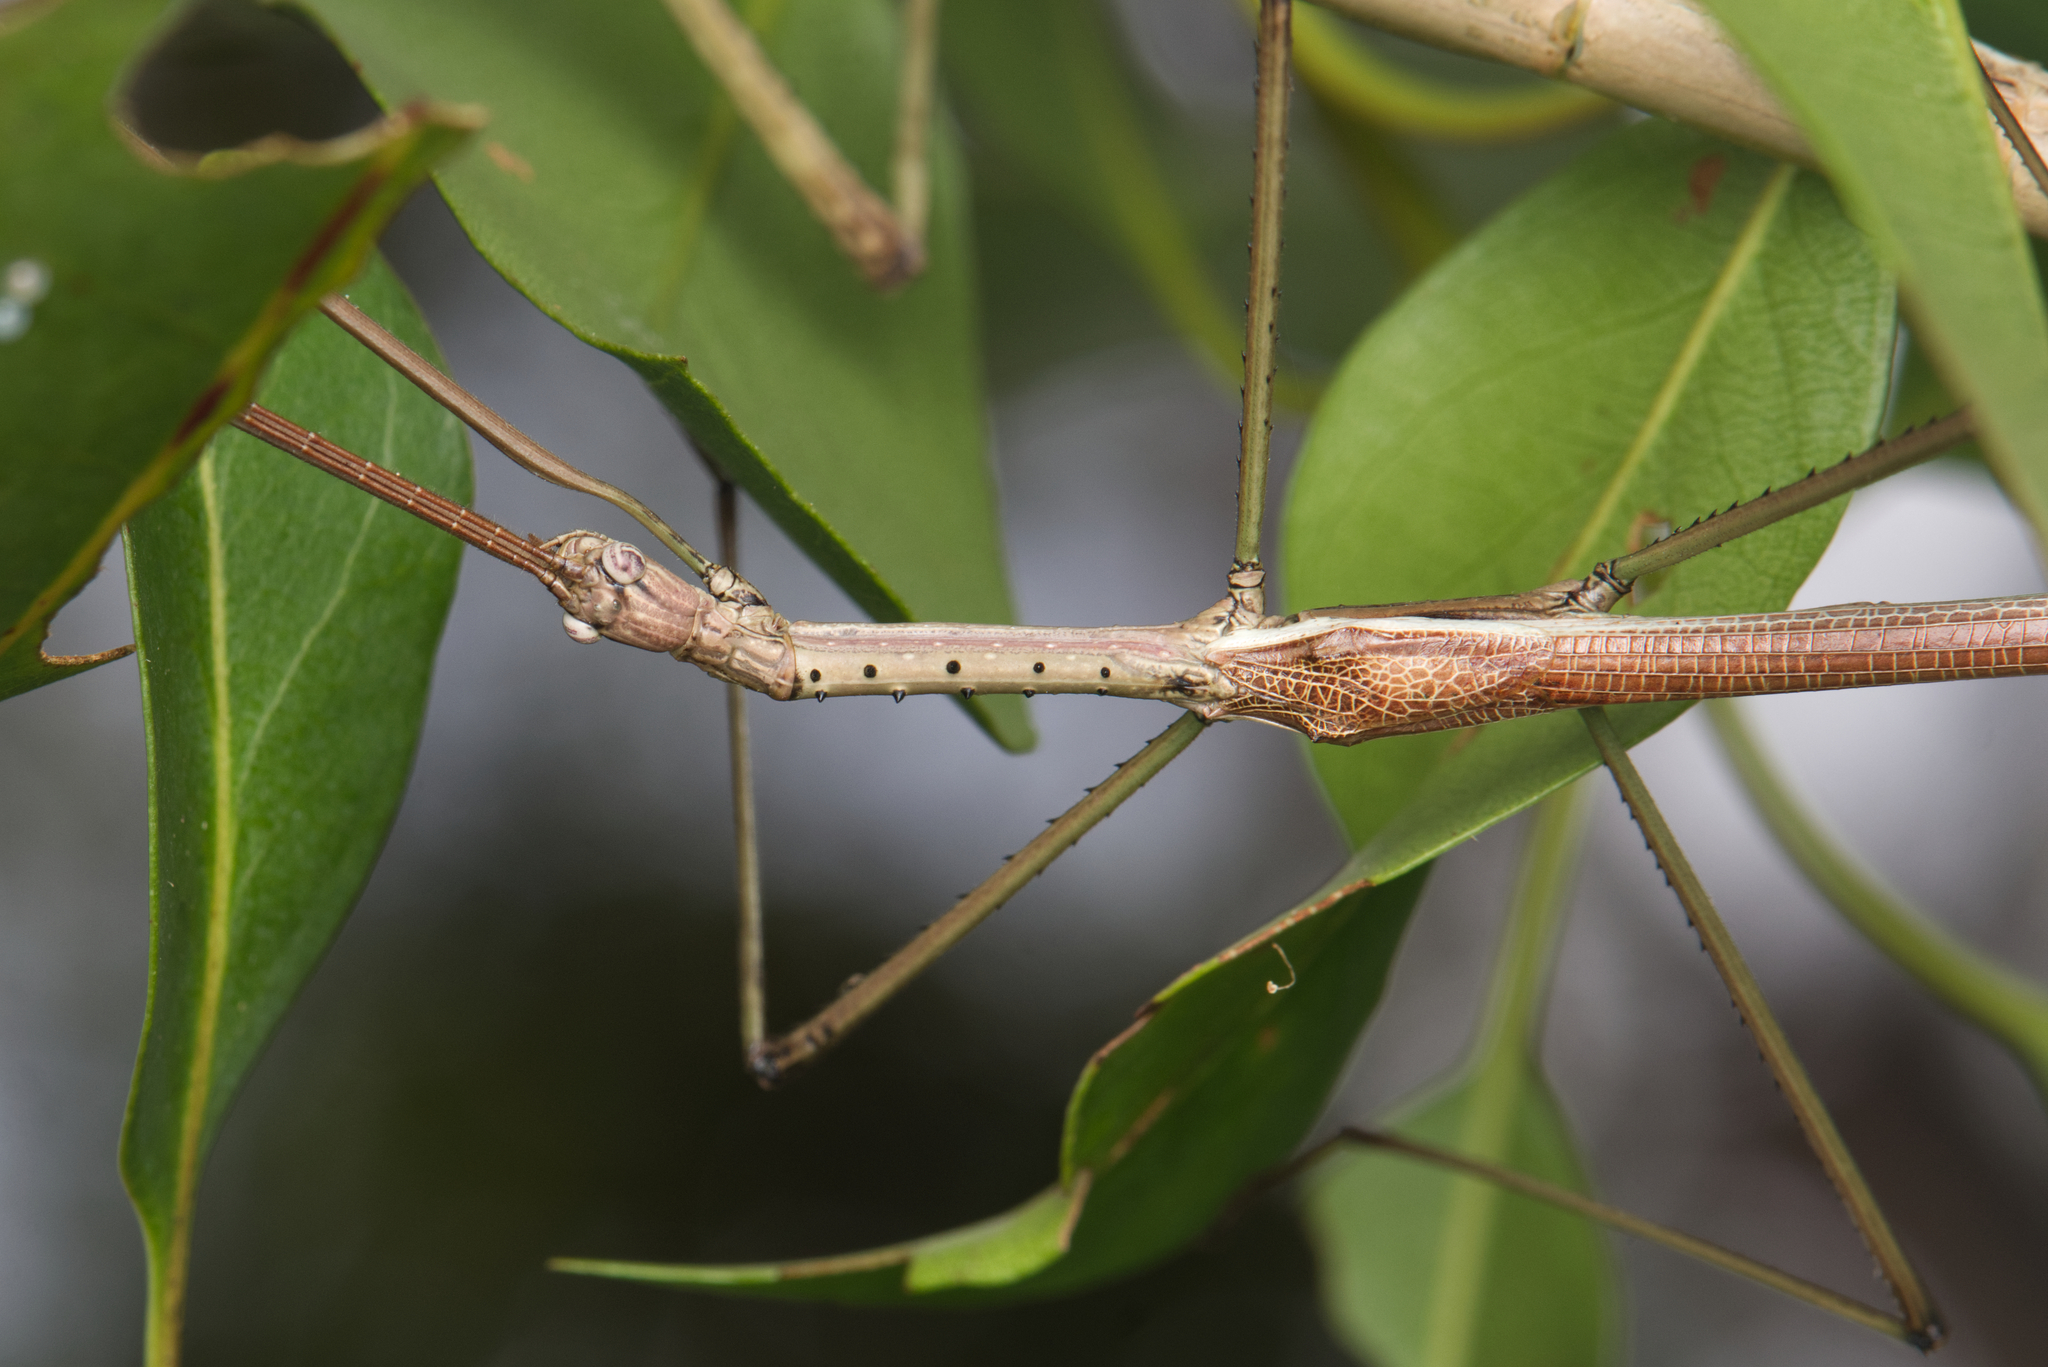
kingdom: Animalia
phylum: Arthropoda
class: Insecta
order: Phasmida
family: Phasmatidae
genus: Anchiale
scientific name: Anchiale austrotessulata
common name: Tessellated stick-insect
